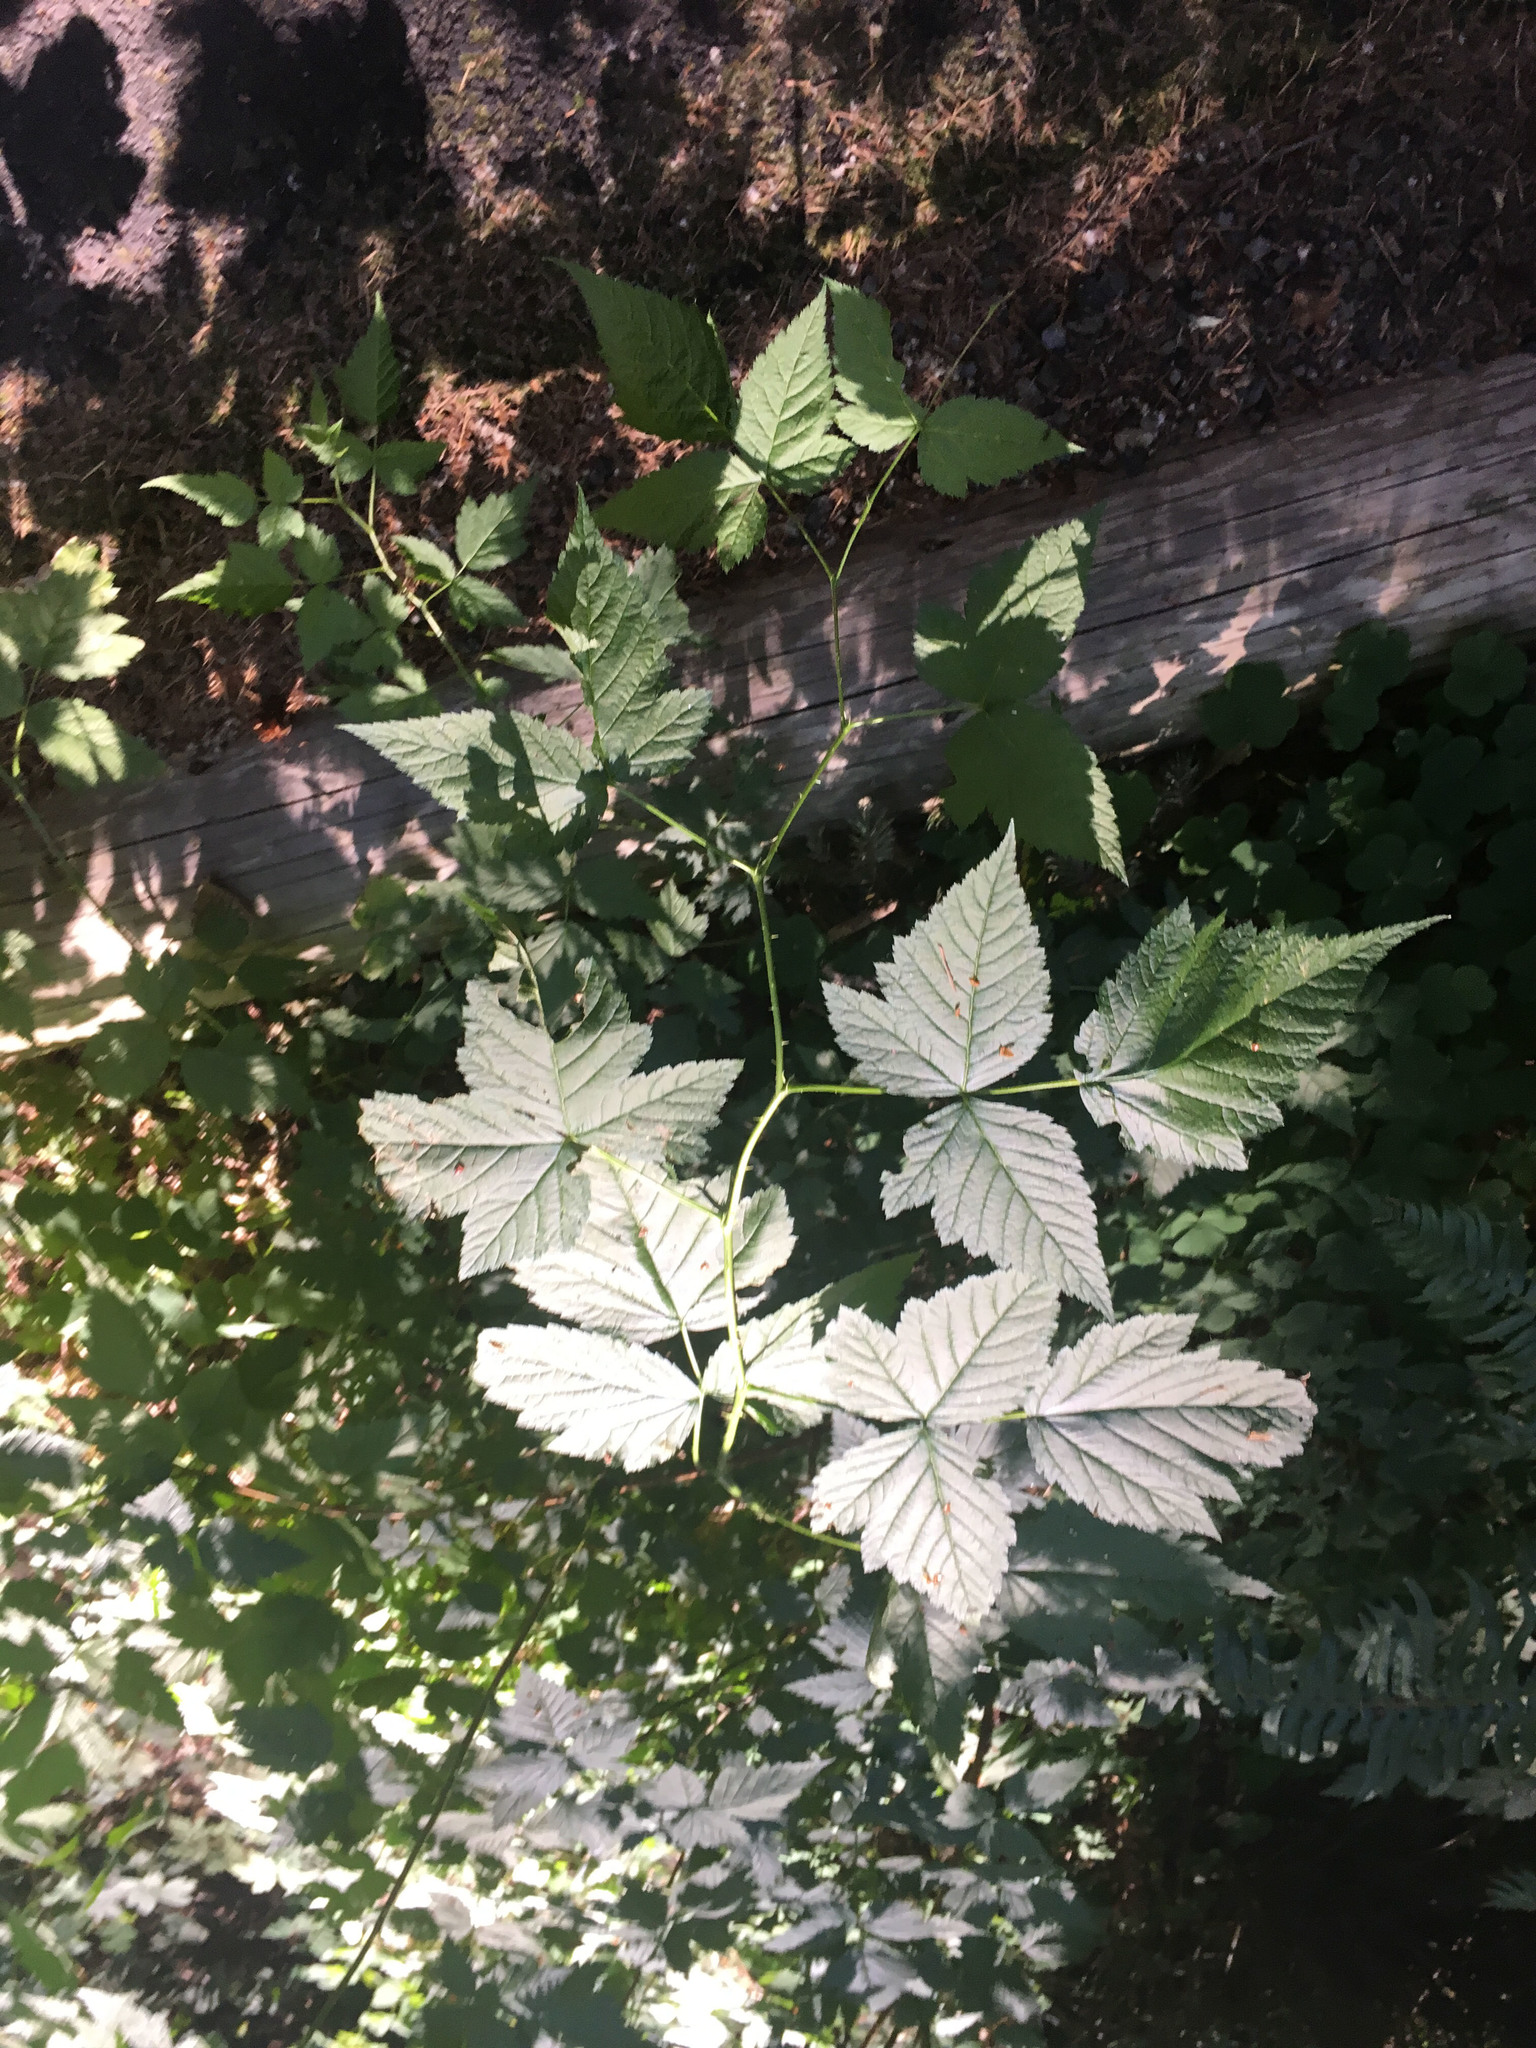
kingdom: Plantae
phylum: Tracheophyta
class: Magnoliopsida
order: Rosales
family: Rosaceae
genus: Rubus
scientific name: Rubus leucodermis
